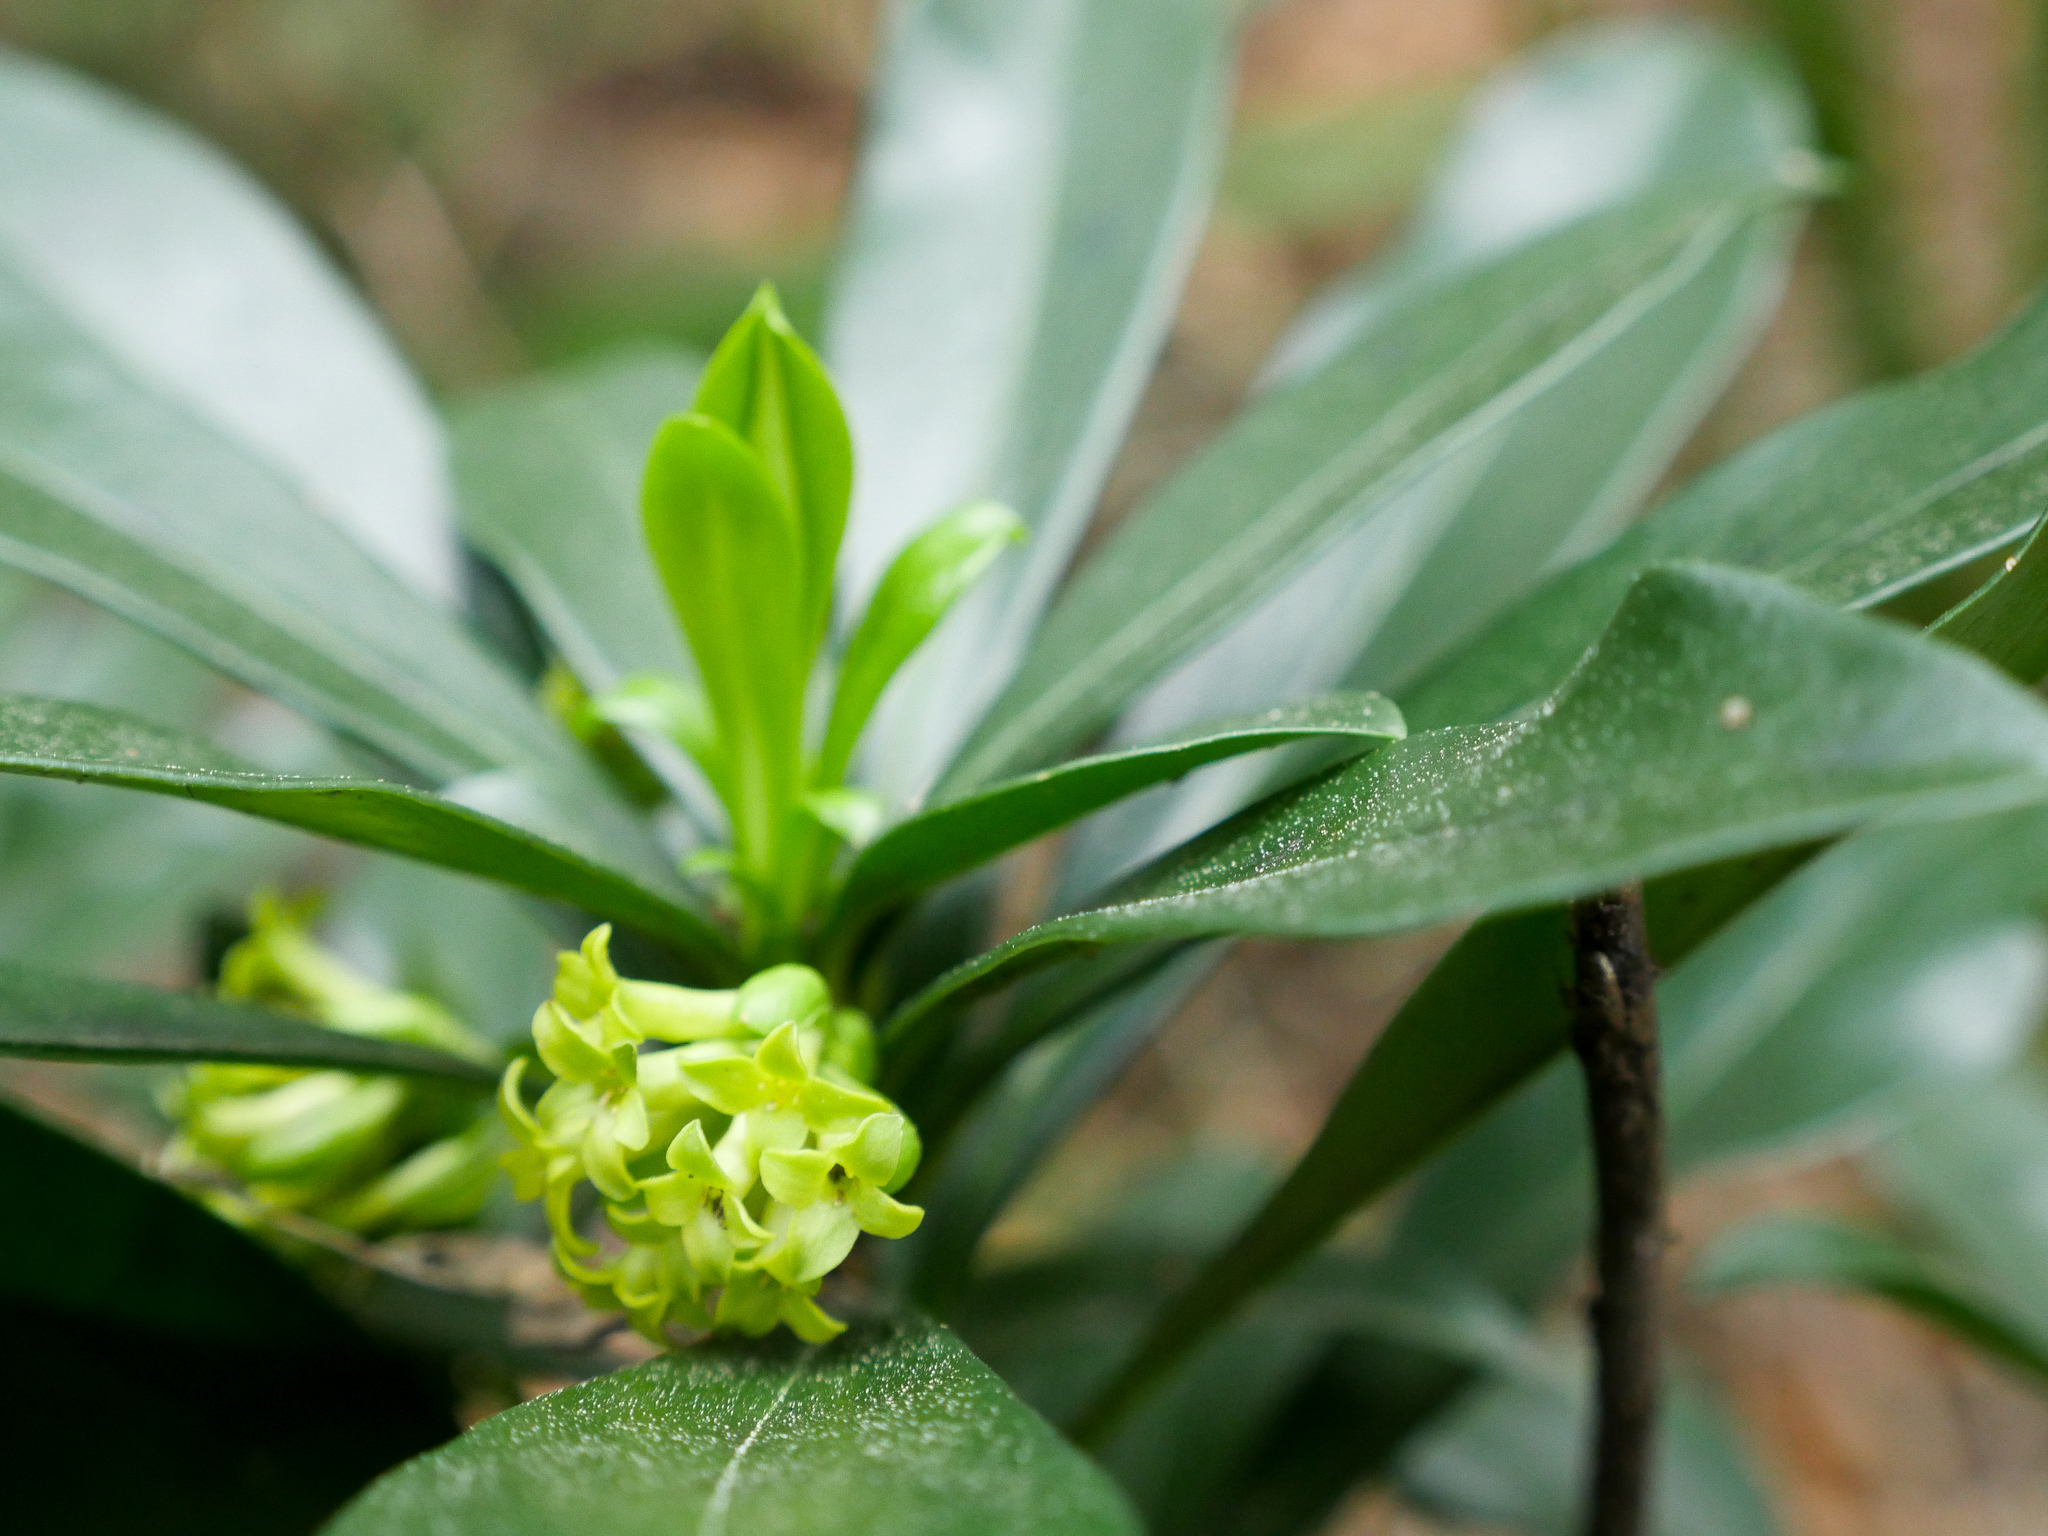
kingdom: Plantae
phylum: Tracheophyta
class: Magnoliopsida
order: Malvales
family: Thymelaeaceae
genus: Daphne
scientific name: Daphne laureola
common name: Spurge-laurel
